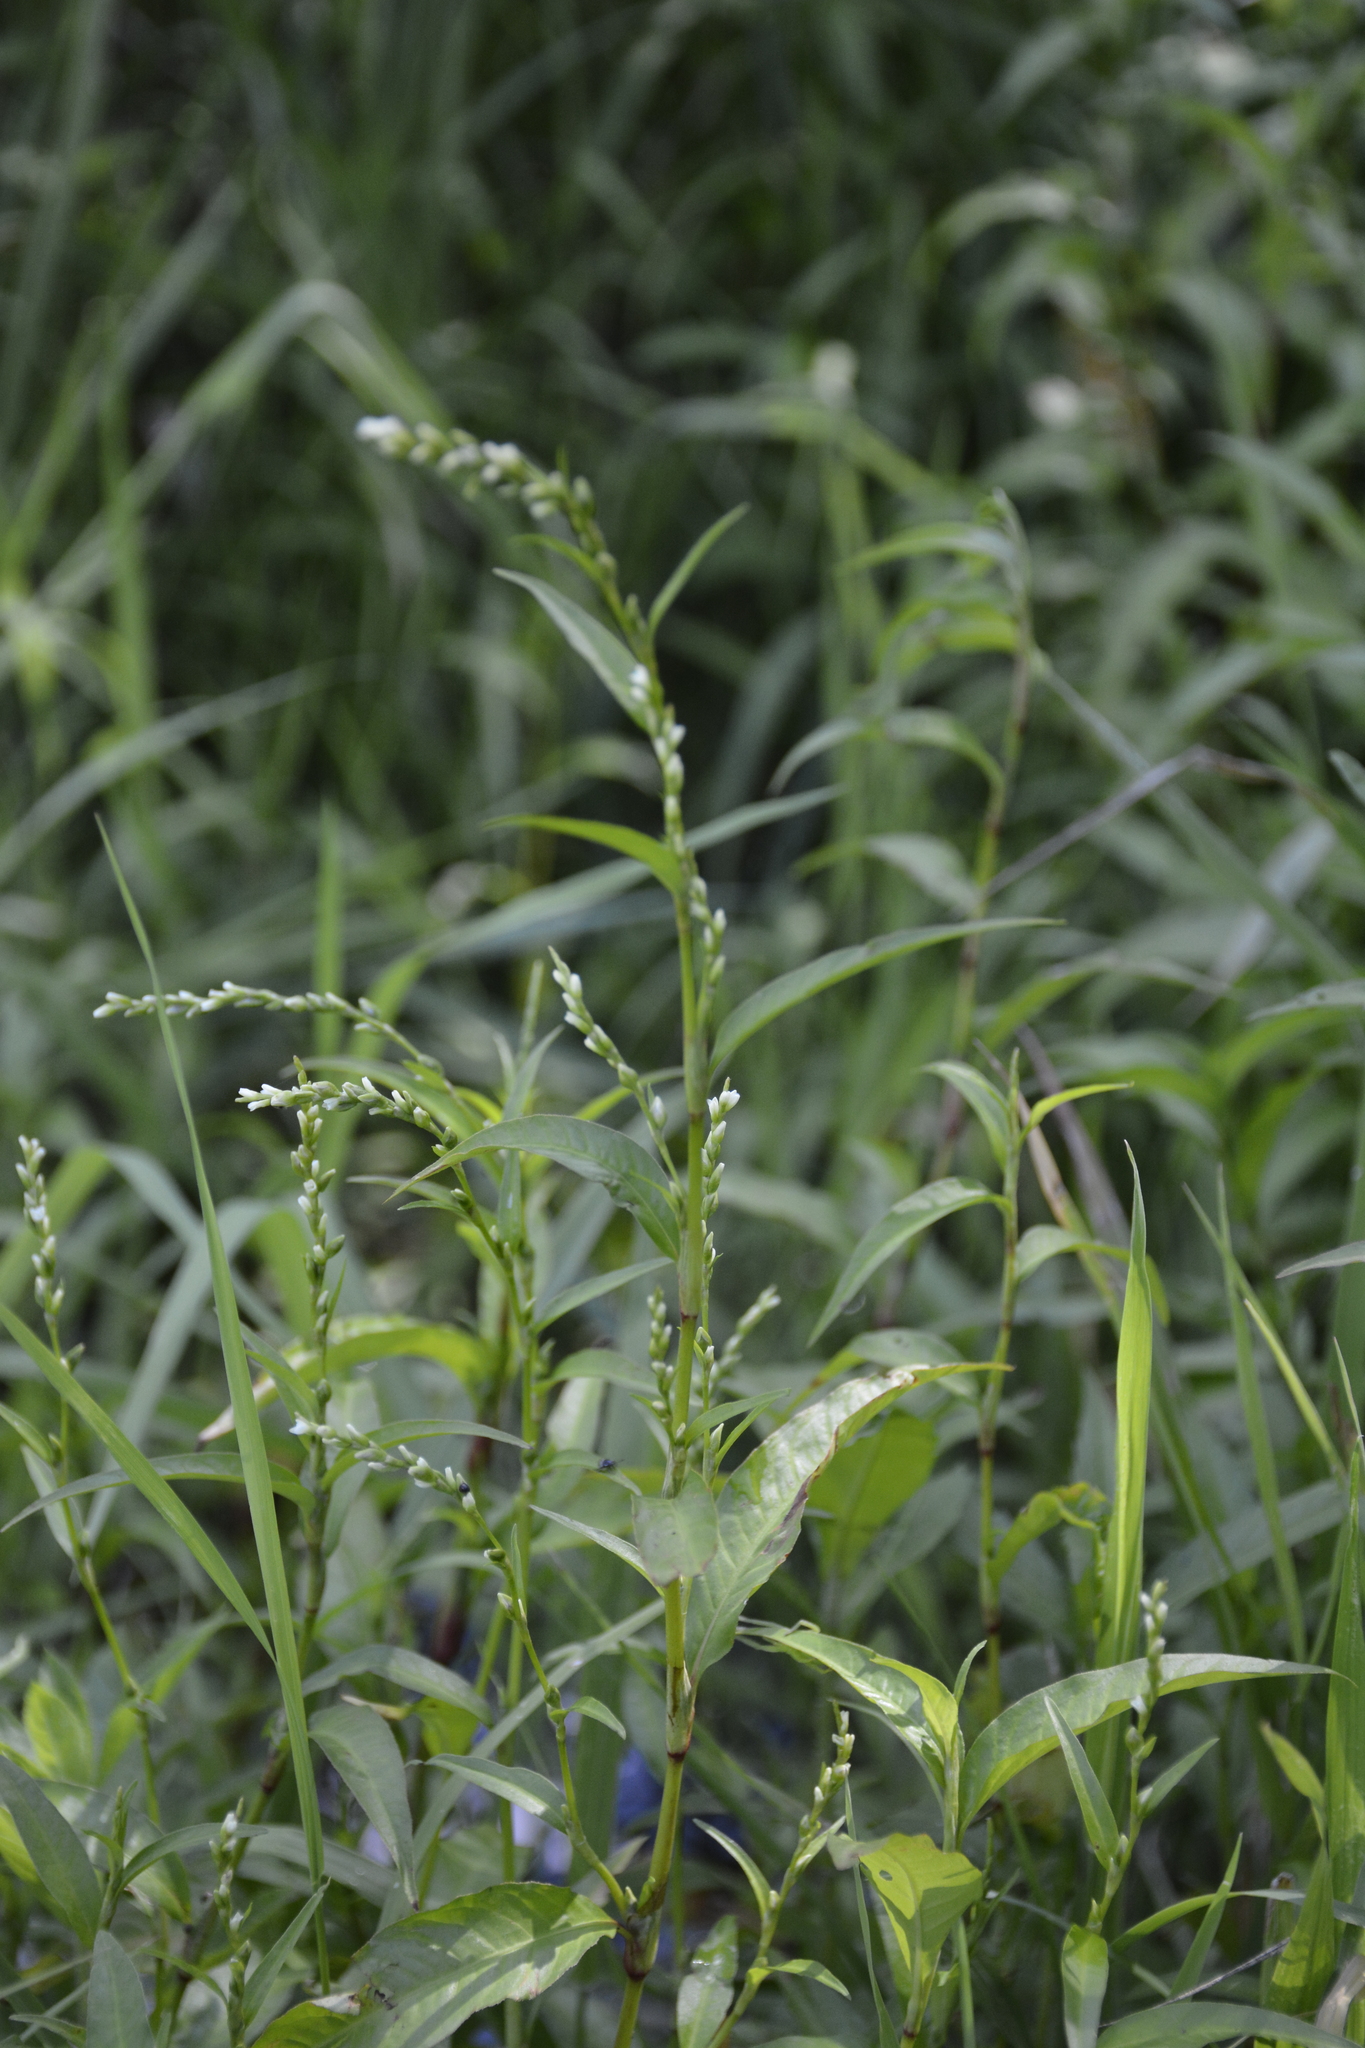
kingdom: Plantae
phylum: Tracheophyta
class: Magnoliopsida
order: Caryophyllales
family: Polygonaceae
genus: Persicaria
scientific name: Persicaria hydropiper
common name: Water-pepper
